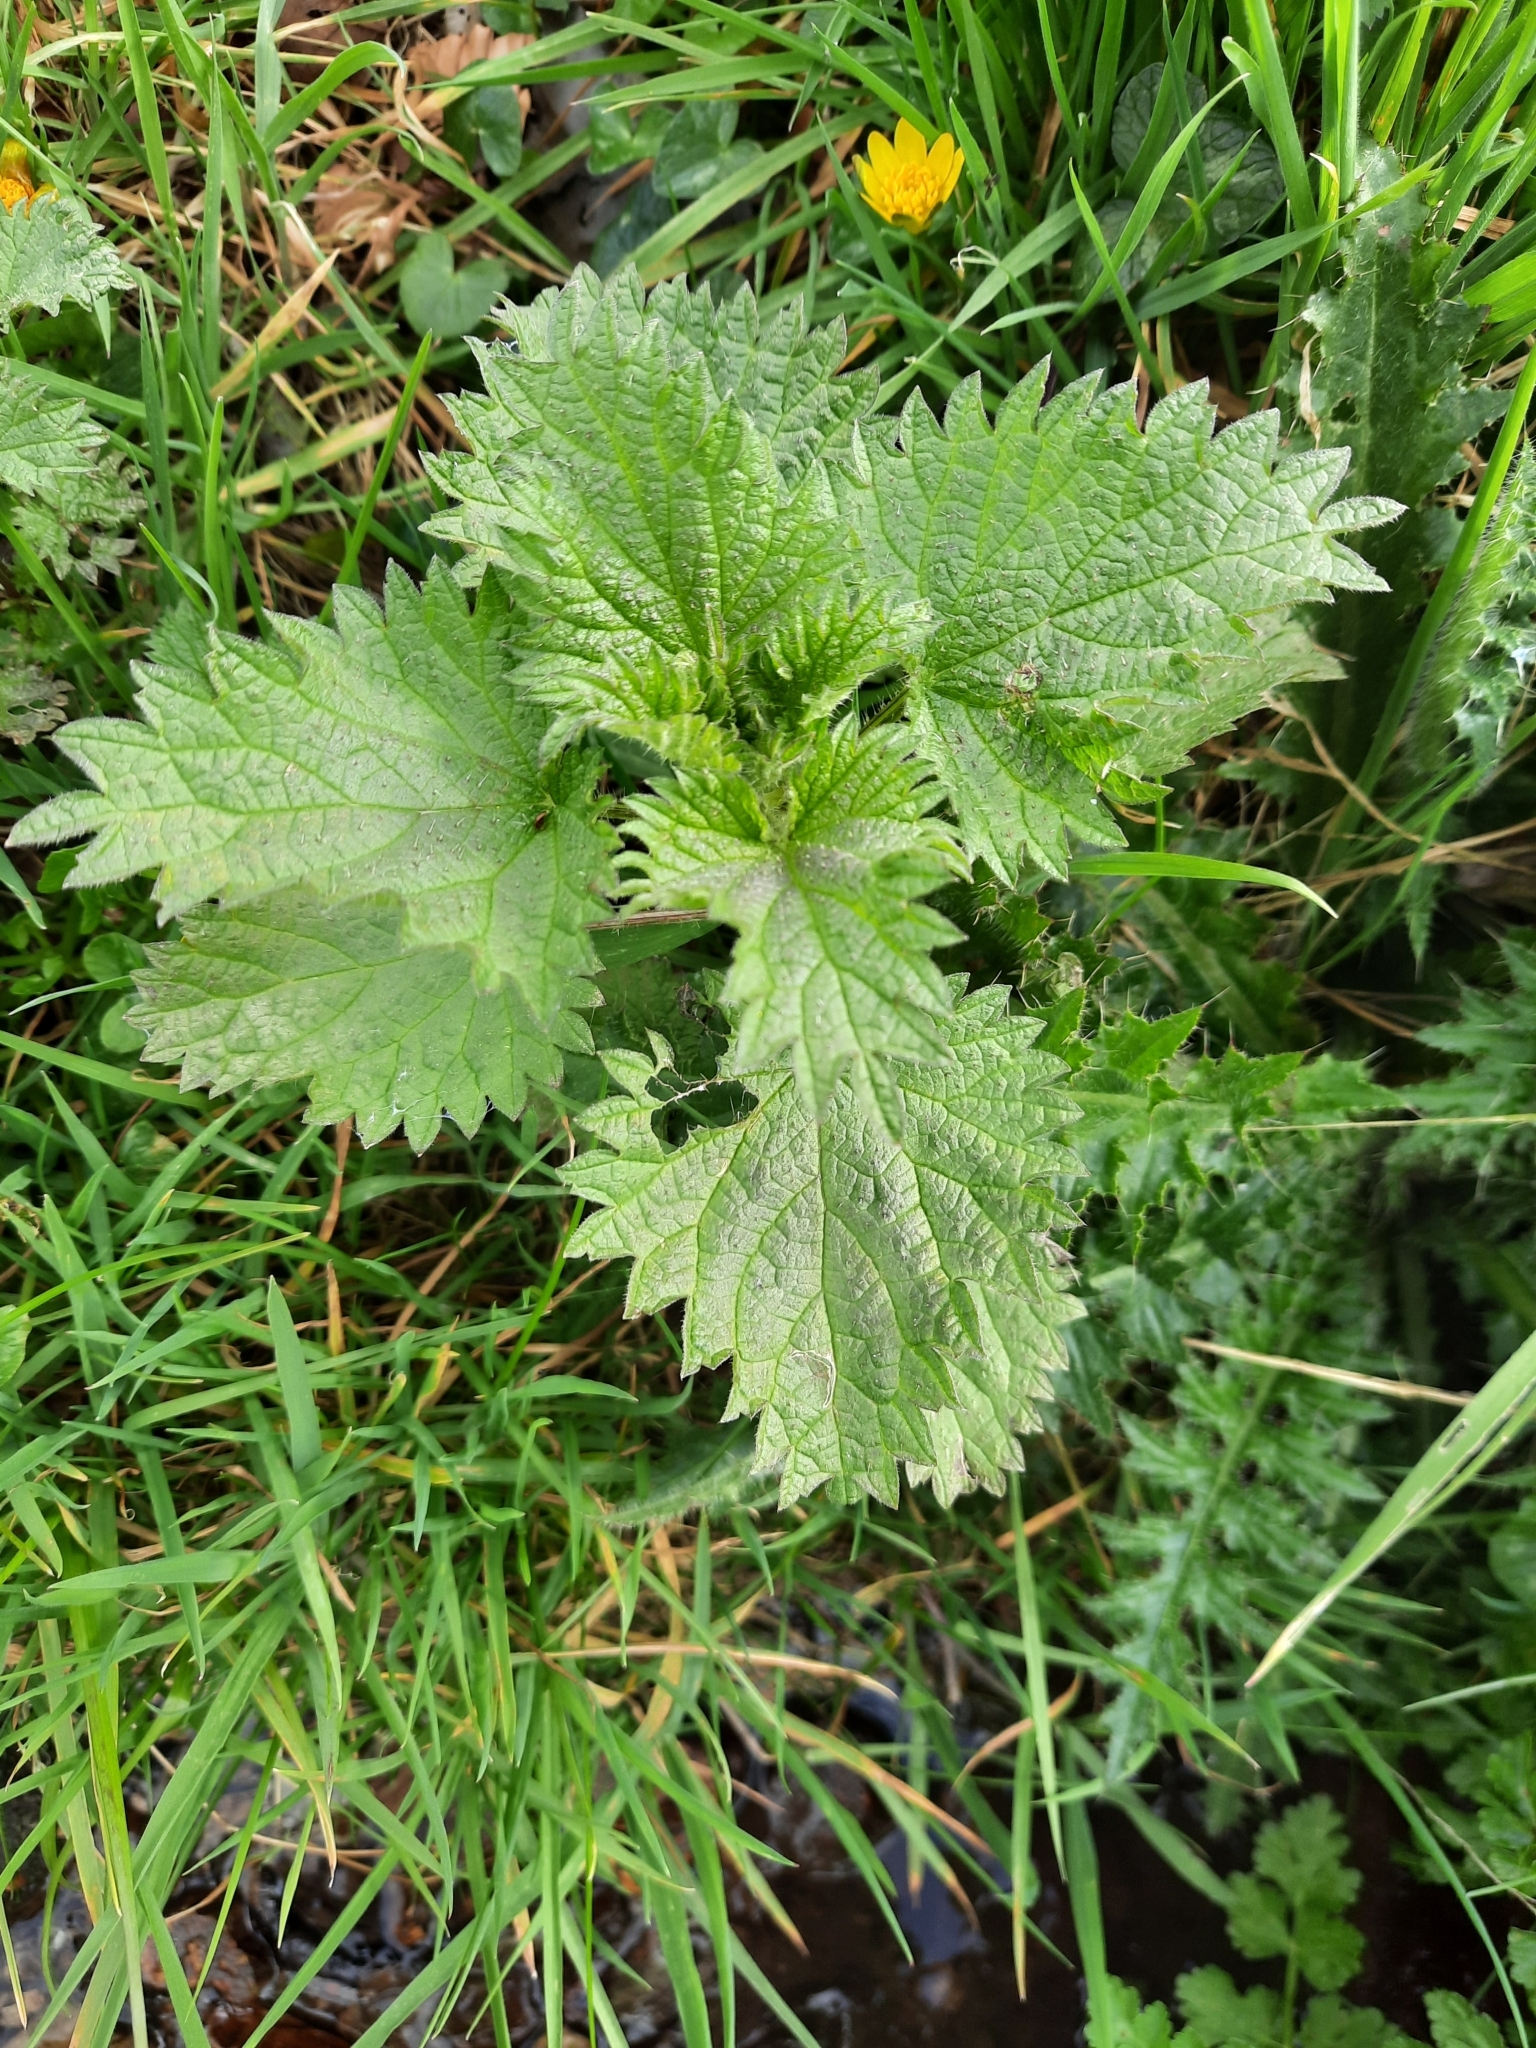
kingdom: Plantae
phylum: Tracheophyta
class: Magnoliopsida
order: Rosales
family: Urticaceae
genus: Urtica
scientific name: Urtica dioica
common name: Common nettle
